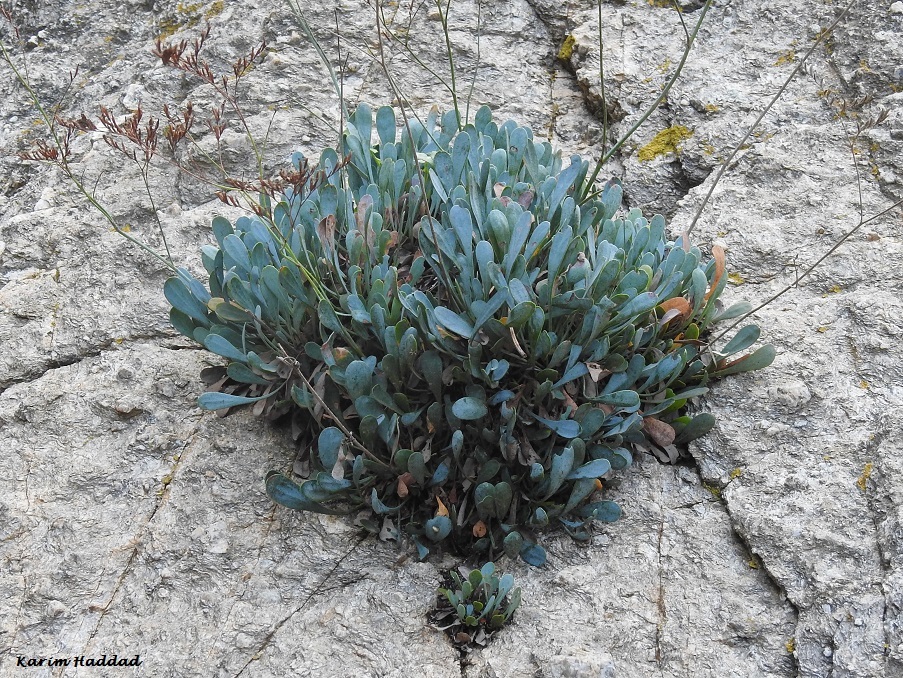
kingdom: Plantae
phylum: Tracheophyta
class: Magnoliopsida
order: Caryophyllales
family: Plumbaginaceae
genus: Limonium
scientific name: Limonium spathulatum
